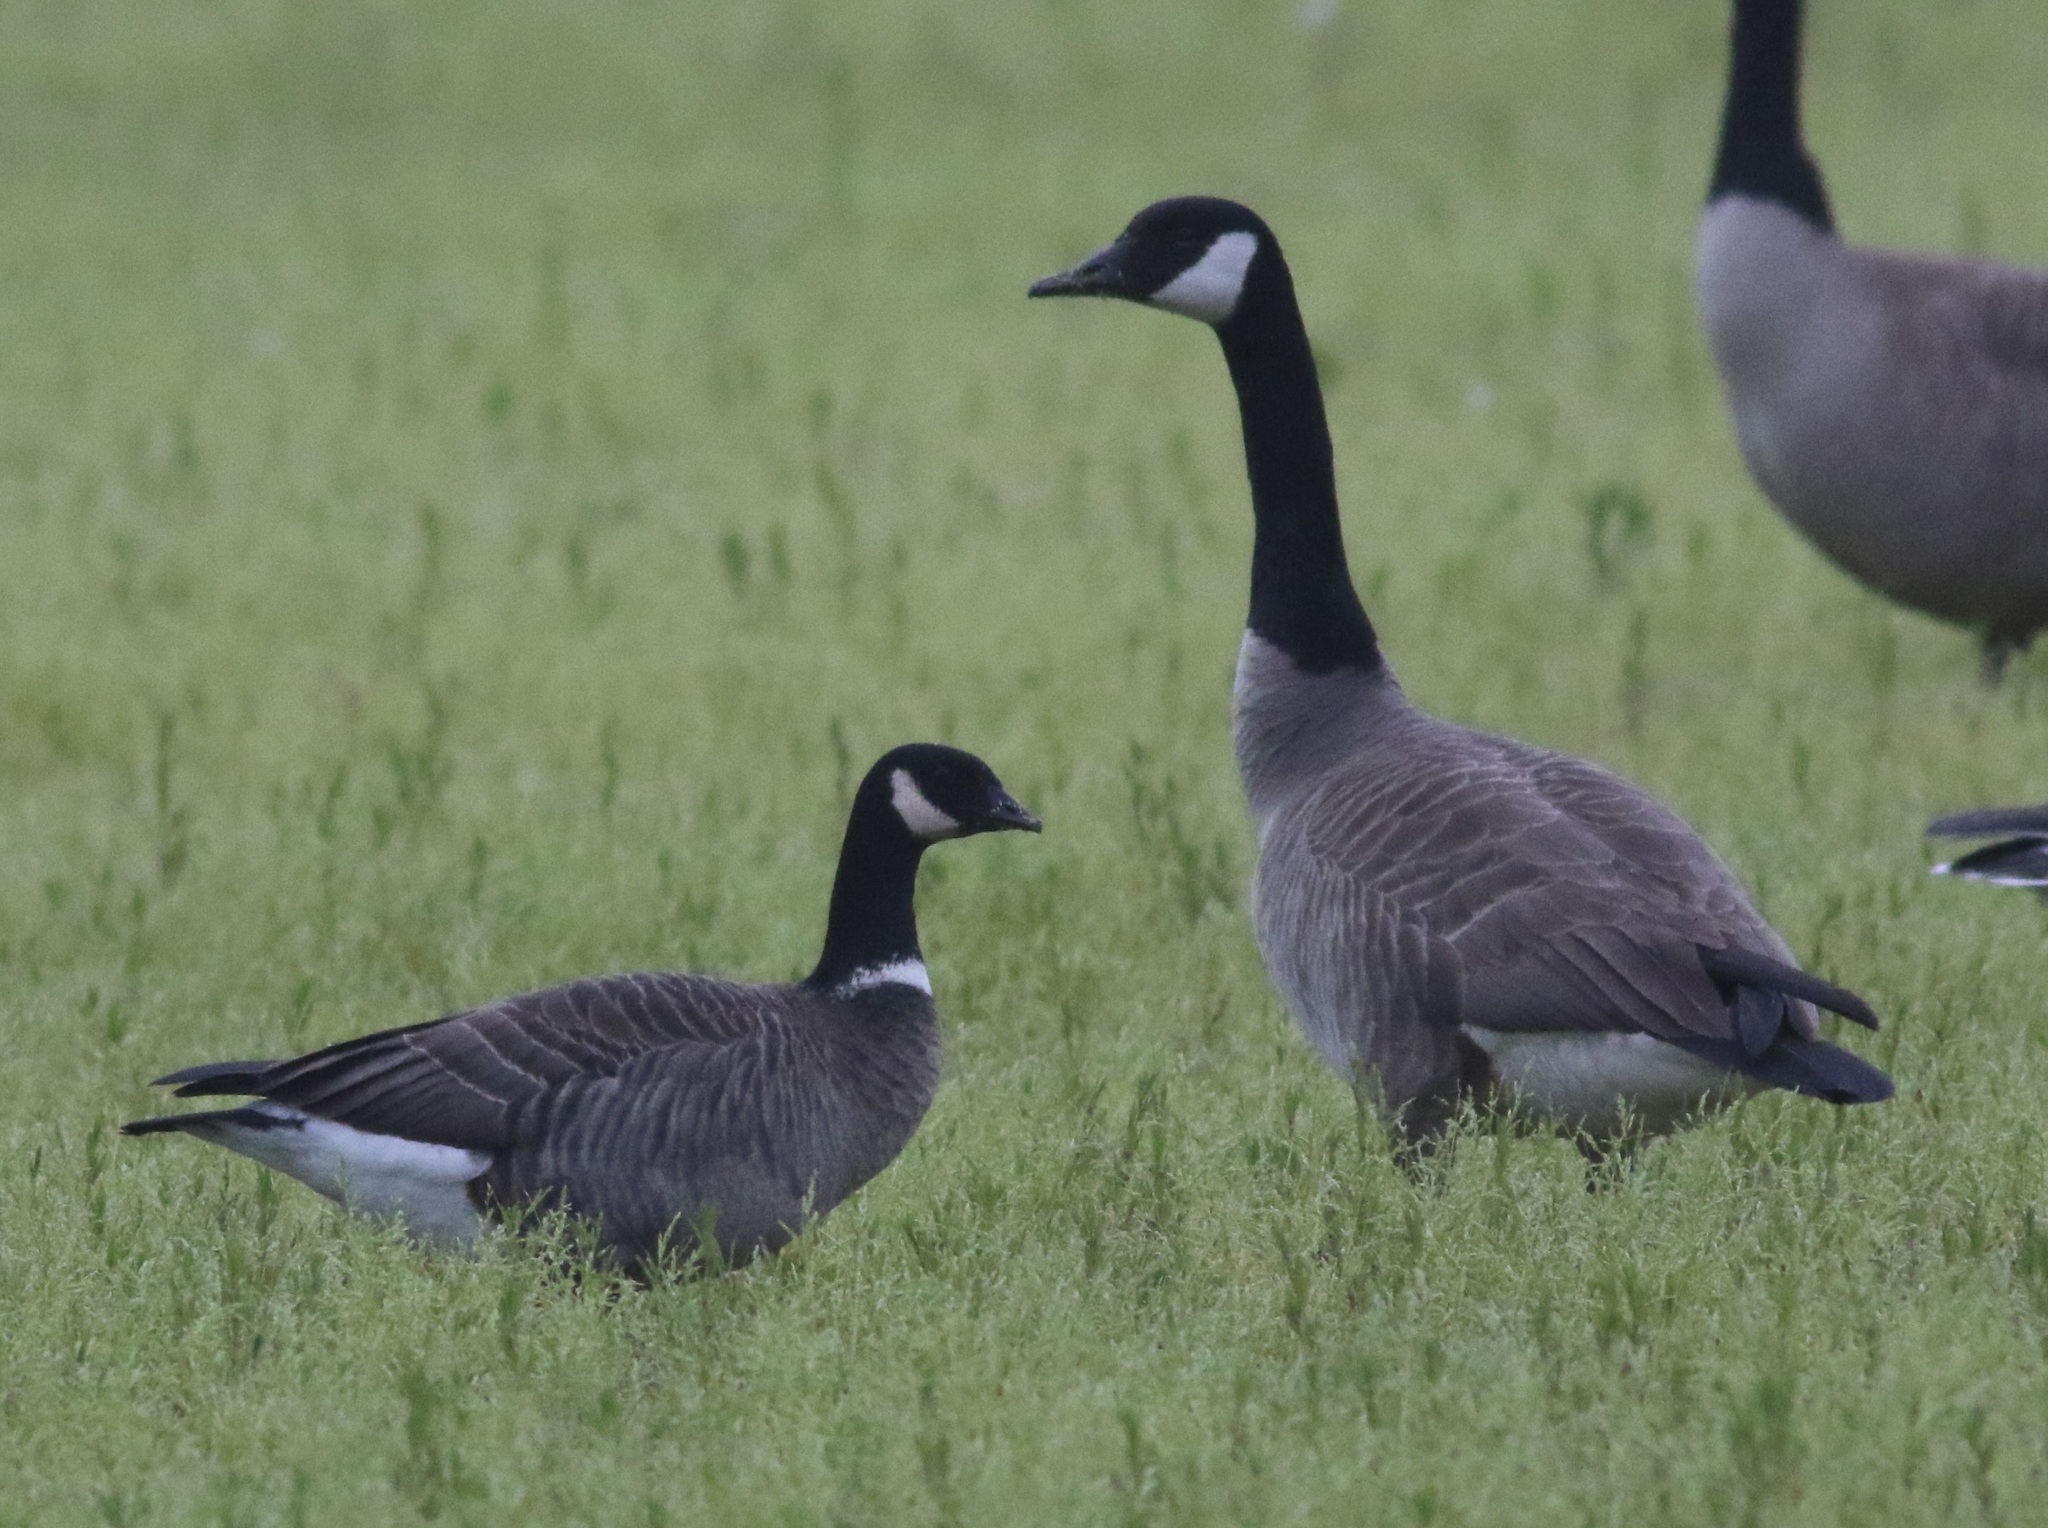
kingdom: Animalia
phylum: Chordata
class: Aves
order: Anseriformes
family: Anatidae
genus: Branta
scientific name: Branta hutchinsii
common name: Cackling goose
